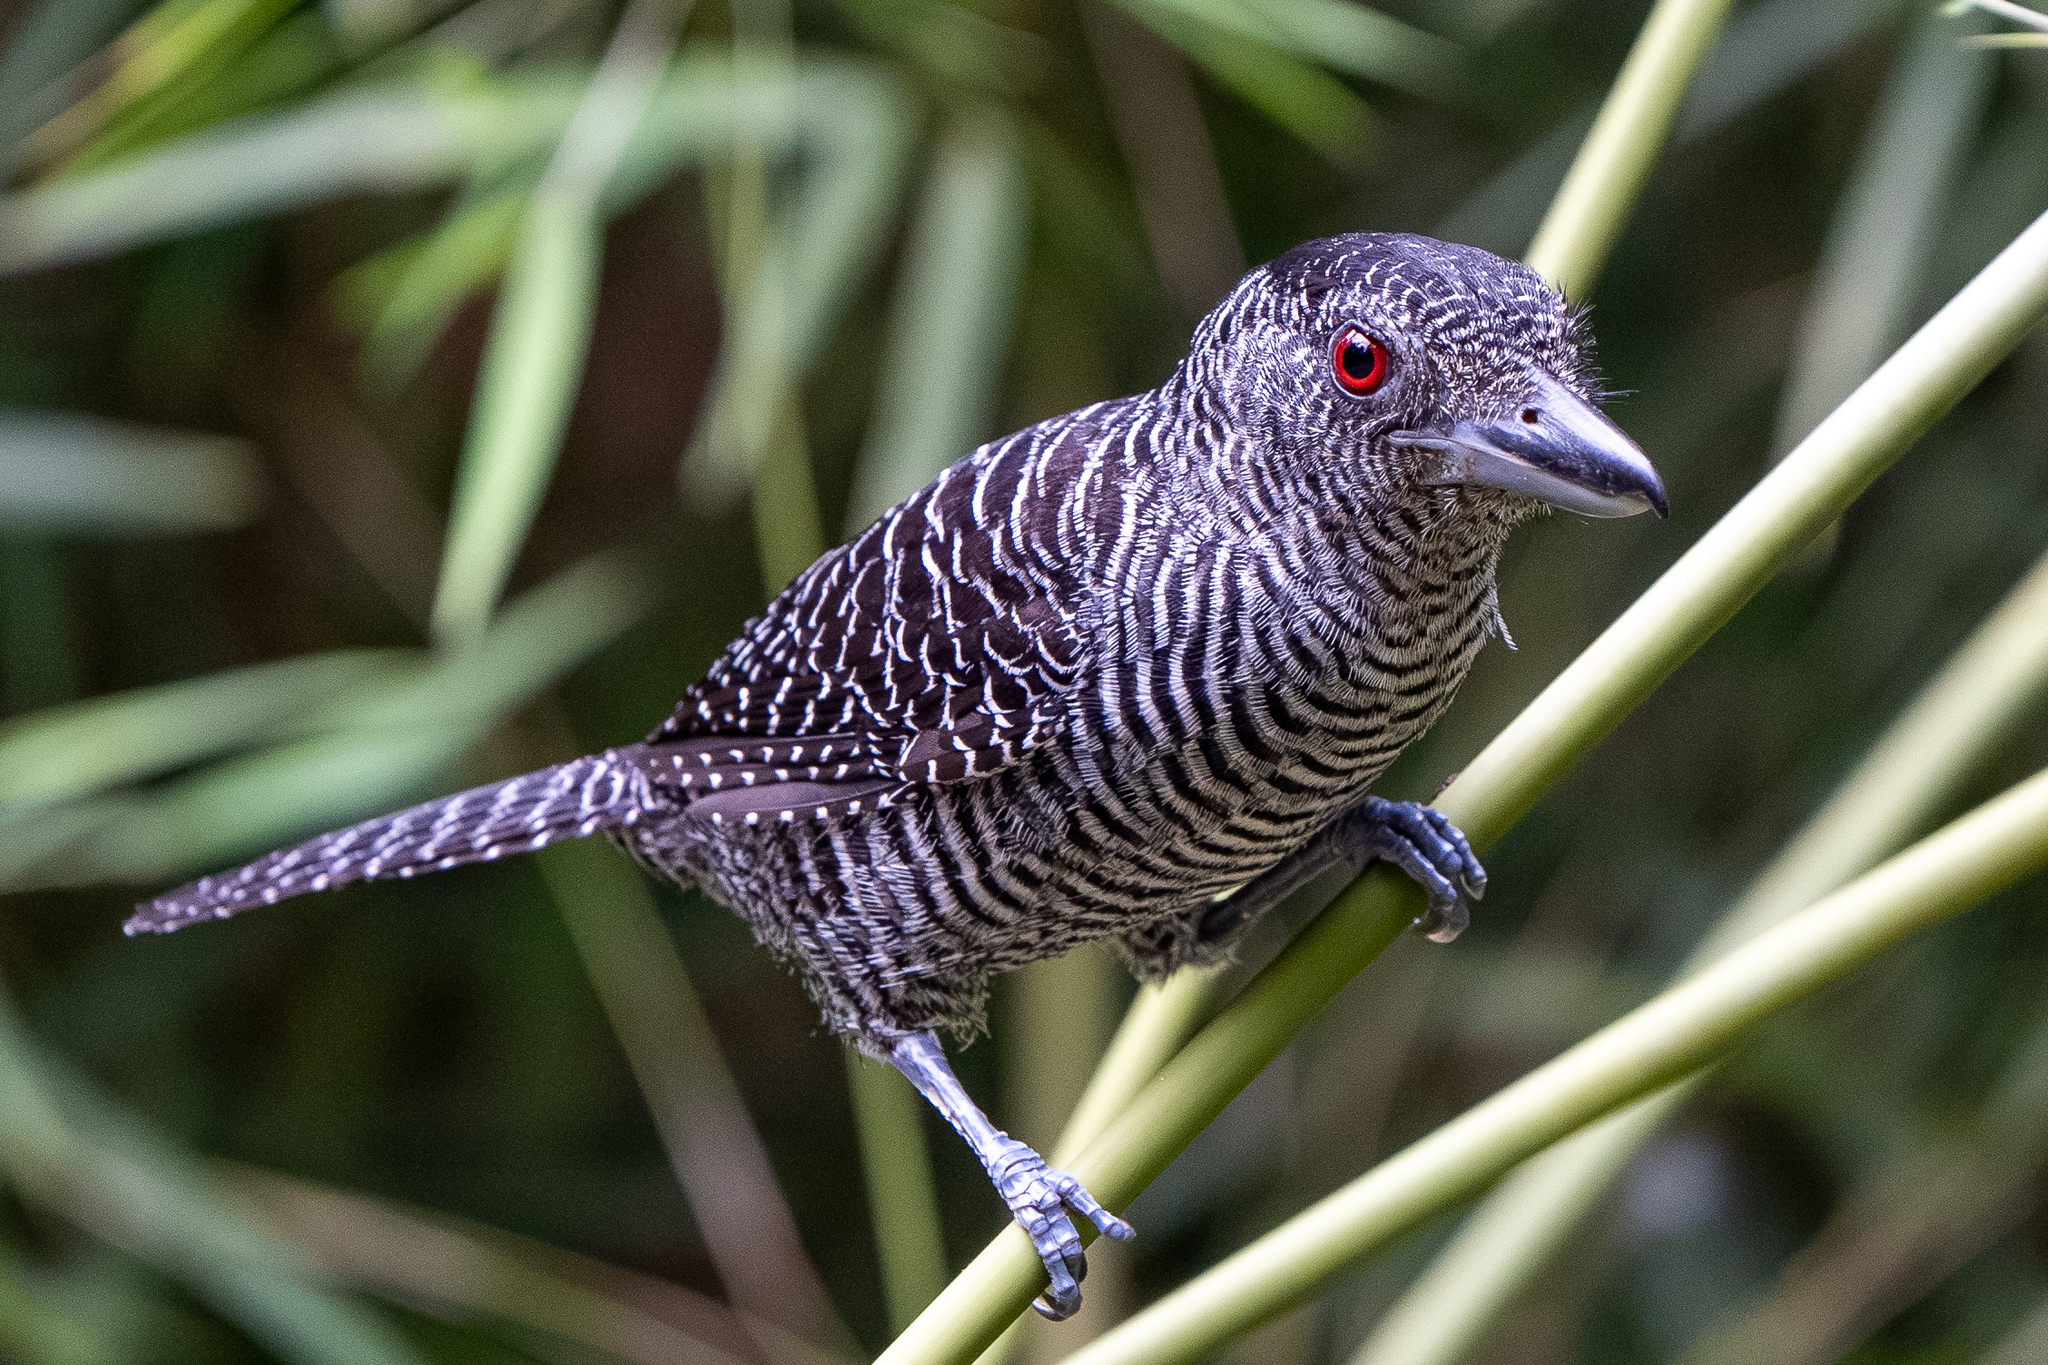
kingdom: Animalia
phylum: Chordata
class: Aves
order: Passeriformes
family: Thamnophilidae
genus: Cymbilaimus
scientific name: Cymbilaimus lineatus
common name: Fasciated antshrike
